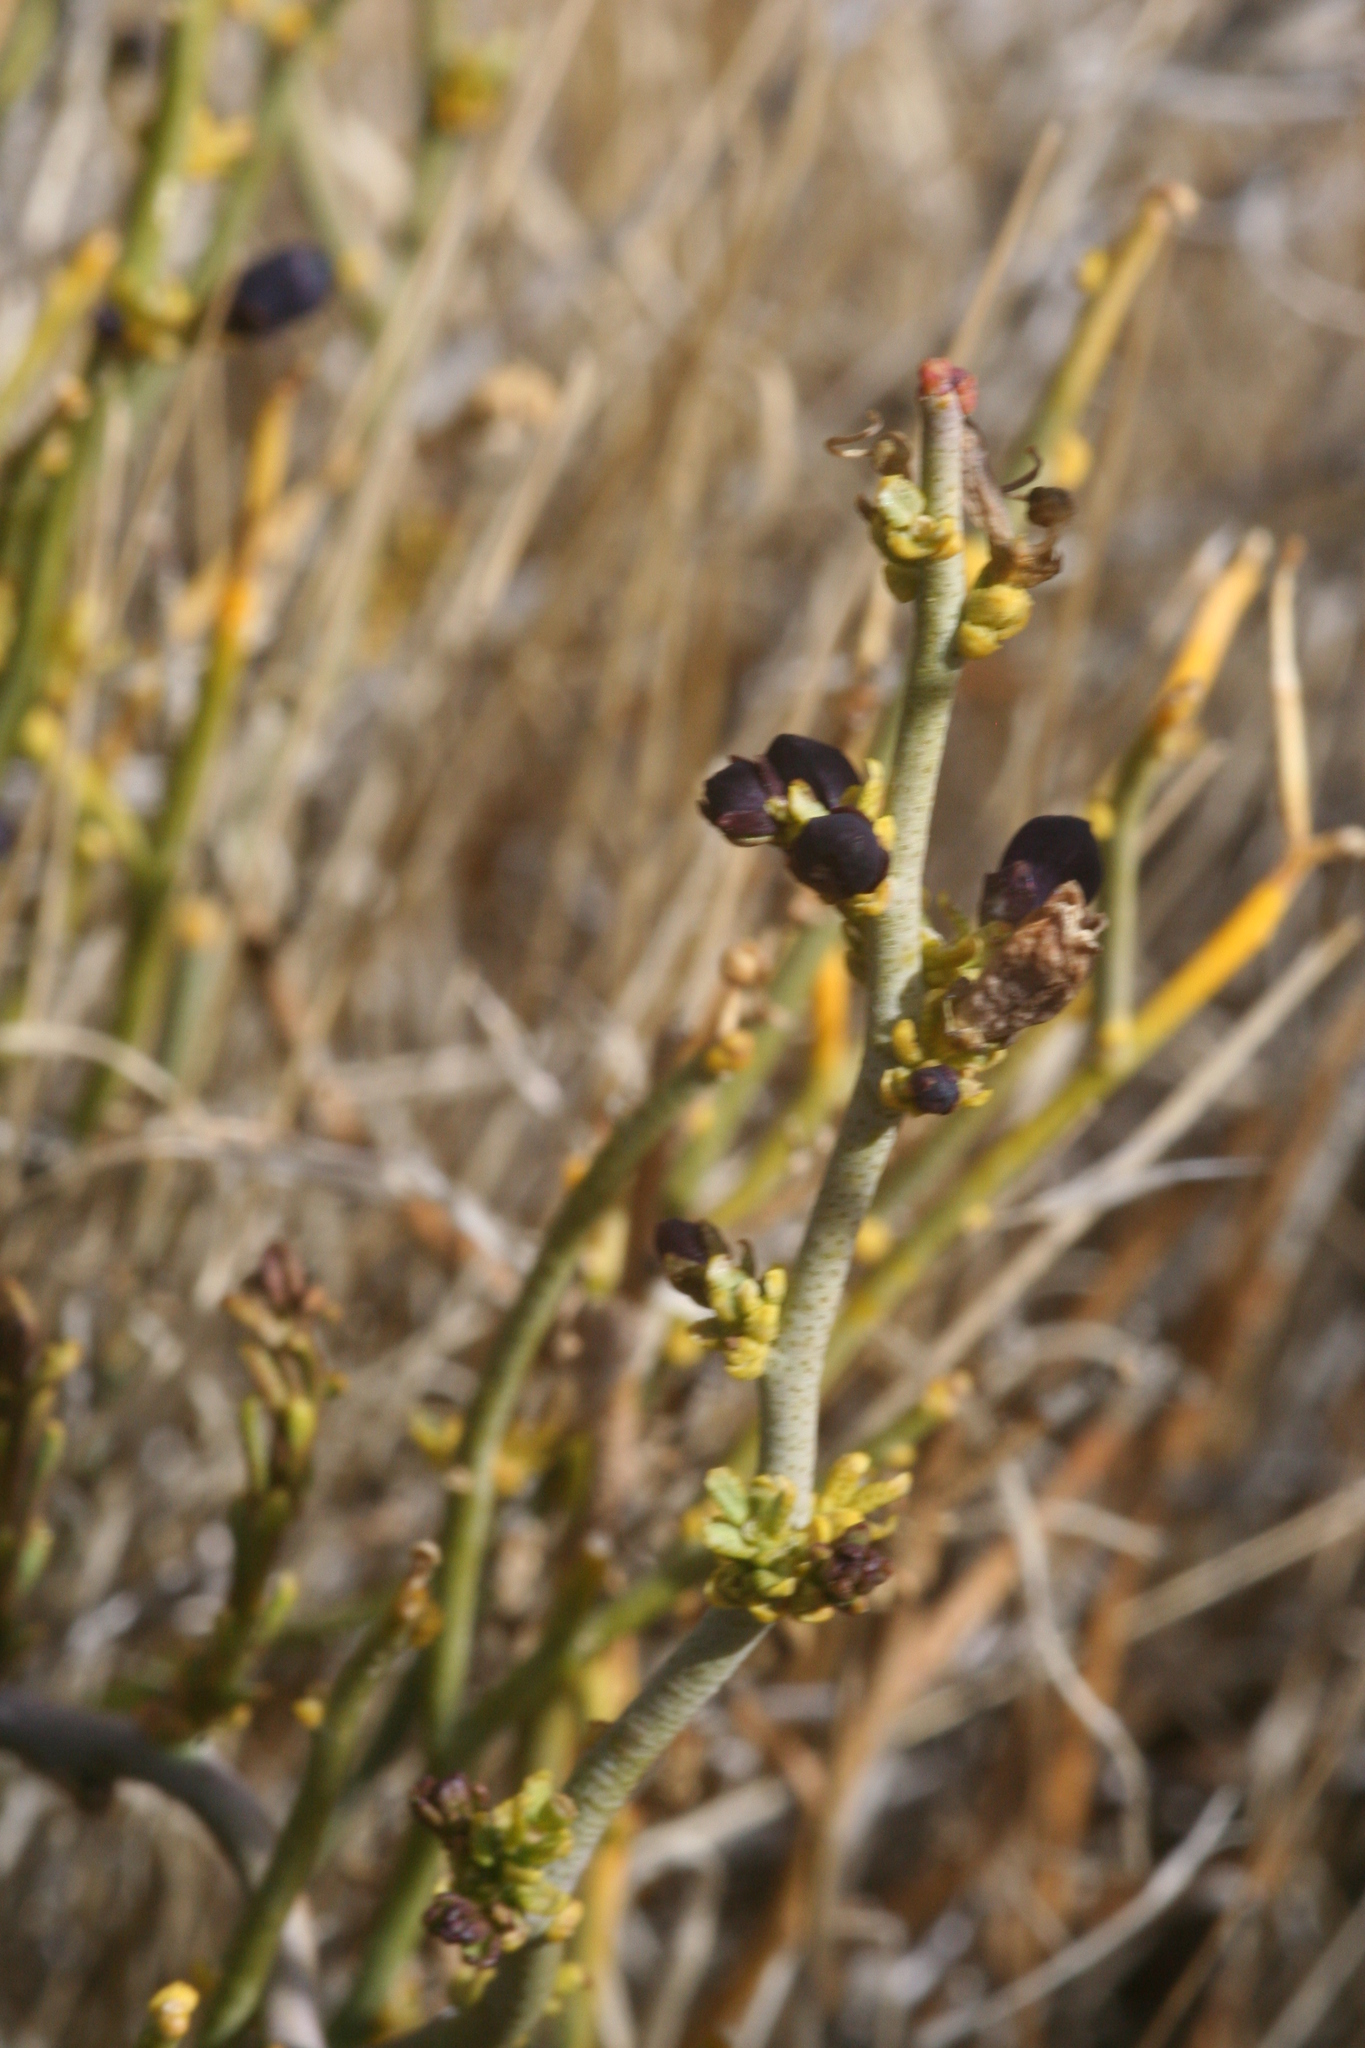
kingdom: Plantae
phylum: Tracheophyta
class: Magnoliopsida
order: Sapindales
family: Rutaceae
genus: Thamnosma
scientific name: Thamnosma montana
